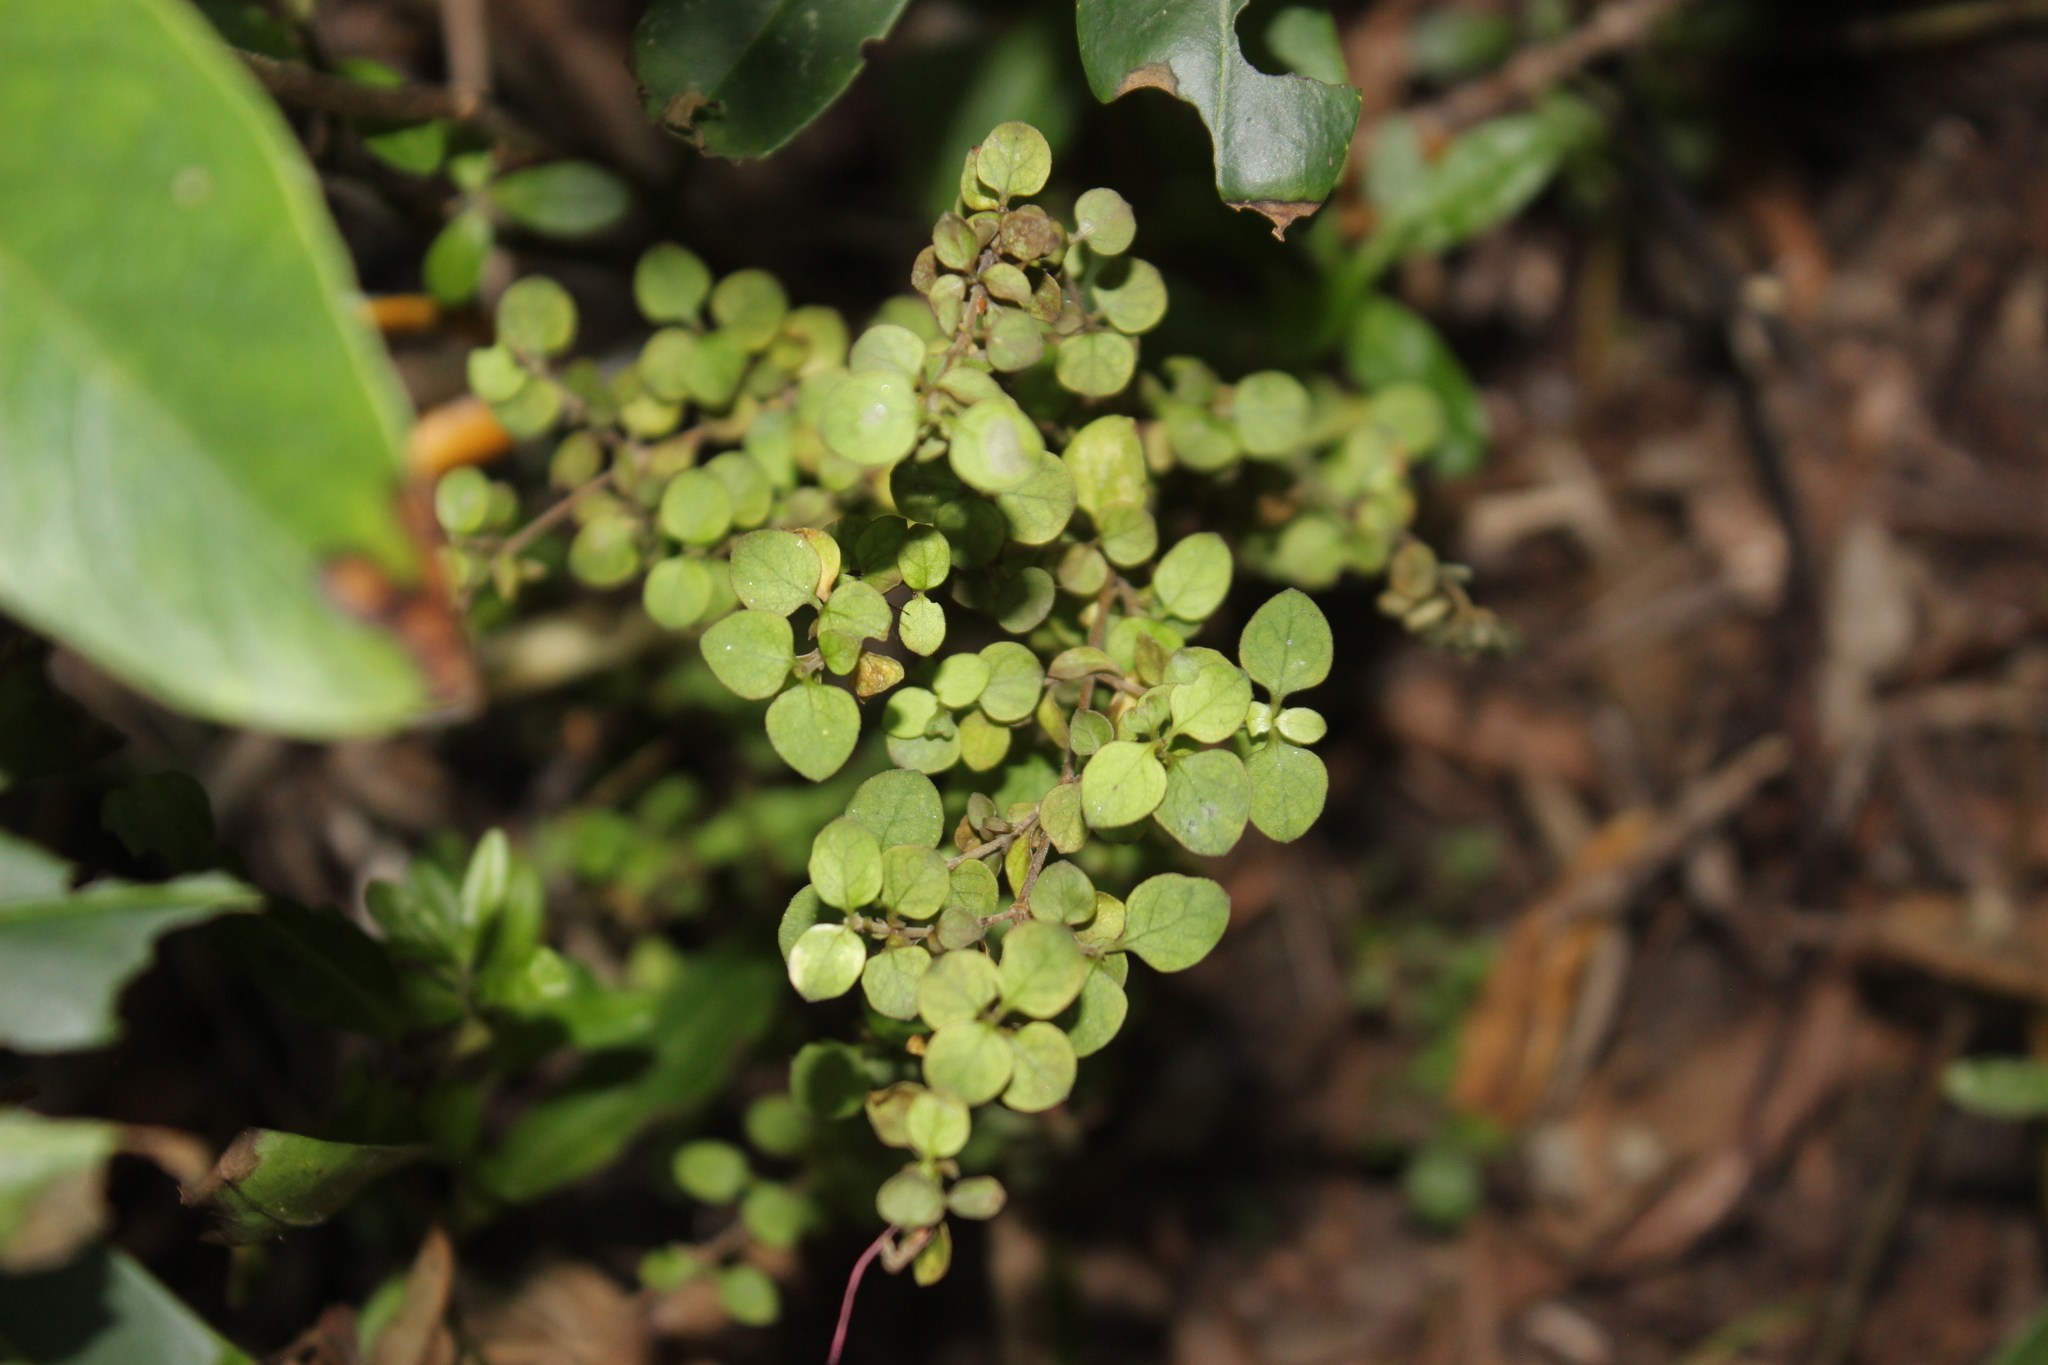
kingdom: Plantae
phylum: Tracheophyta
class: Magnoliopsida
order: Gentianales
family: Rubiaceae
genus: Coprosma
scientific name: Coprosma rhamnoides
